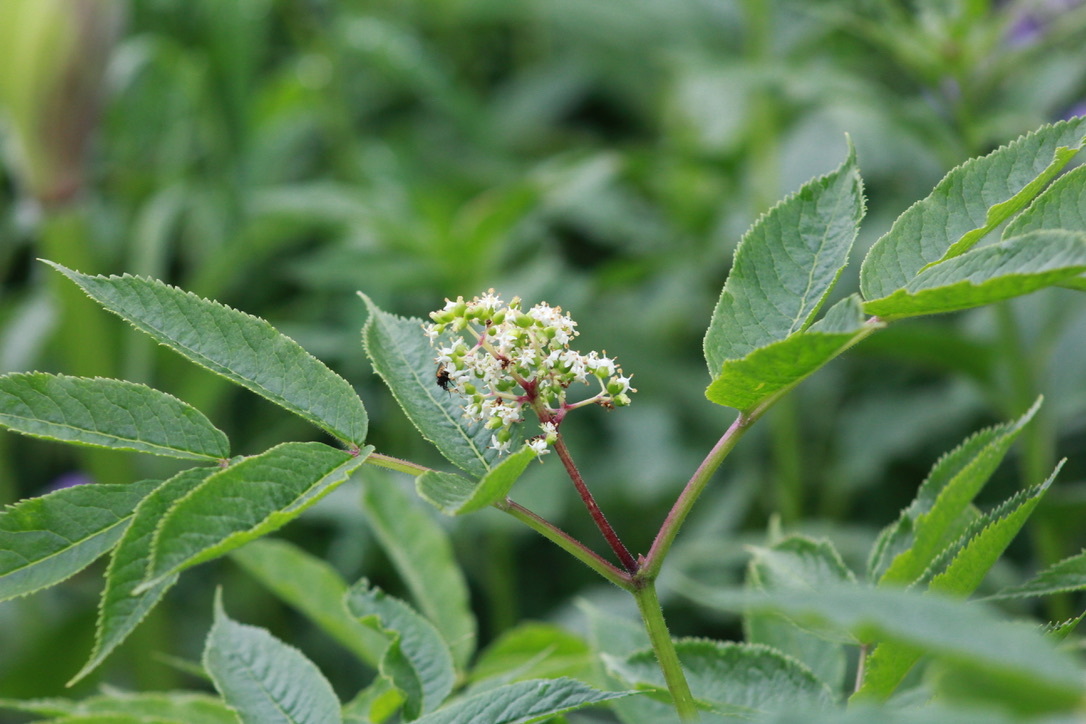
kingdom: Plantae
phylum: Tracheophyta
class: Magnoliopsida
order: Dipsacales
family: Viburnaceae
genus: Sambucus
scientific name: Sambucus racemosa
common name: Red-berried elder
